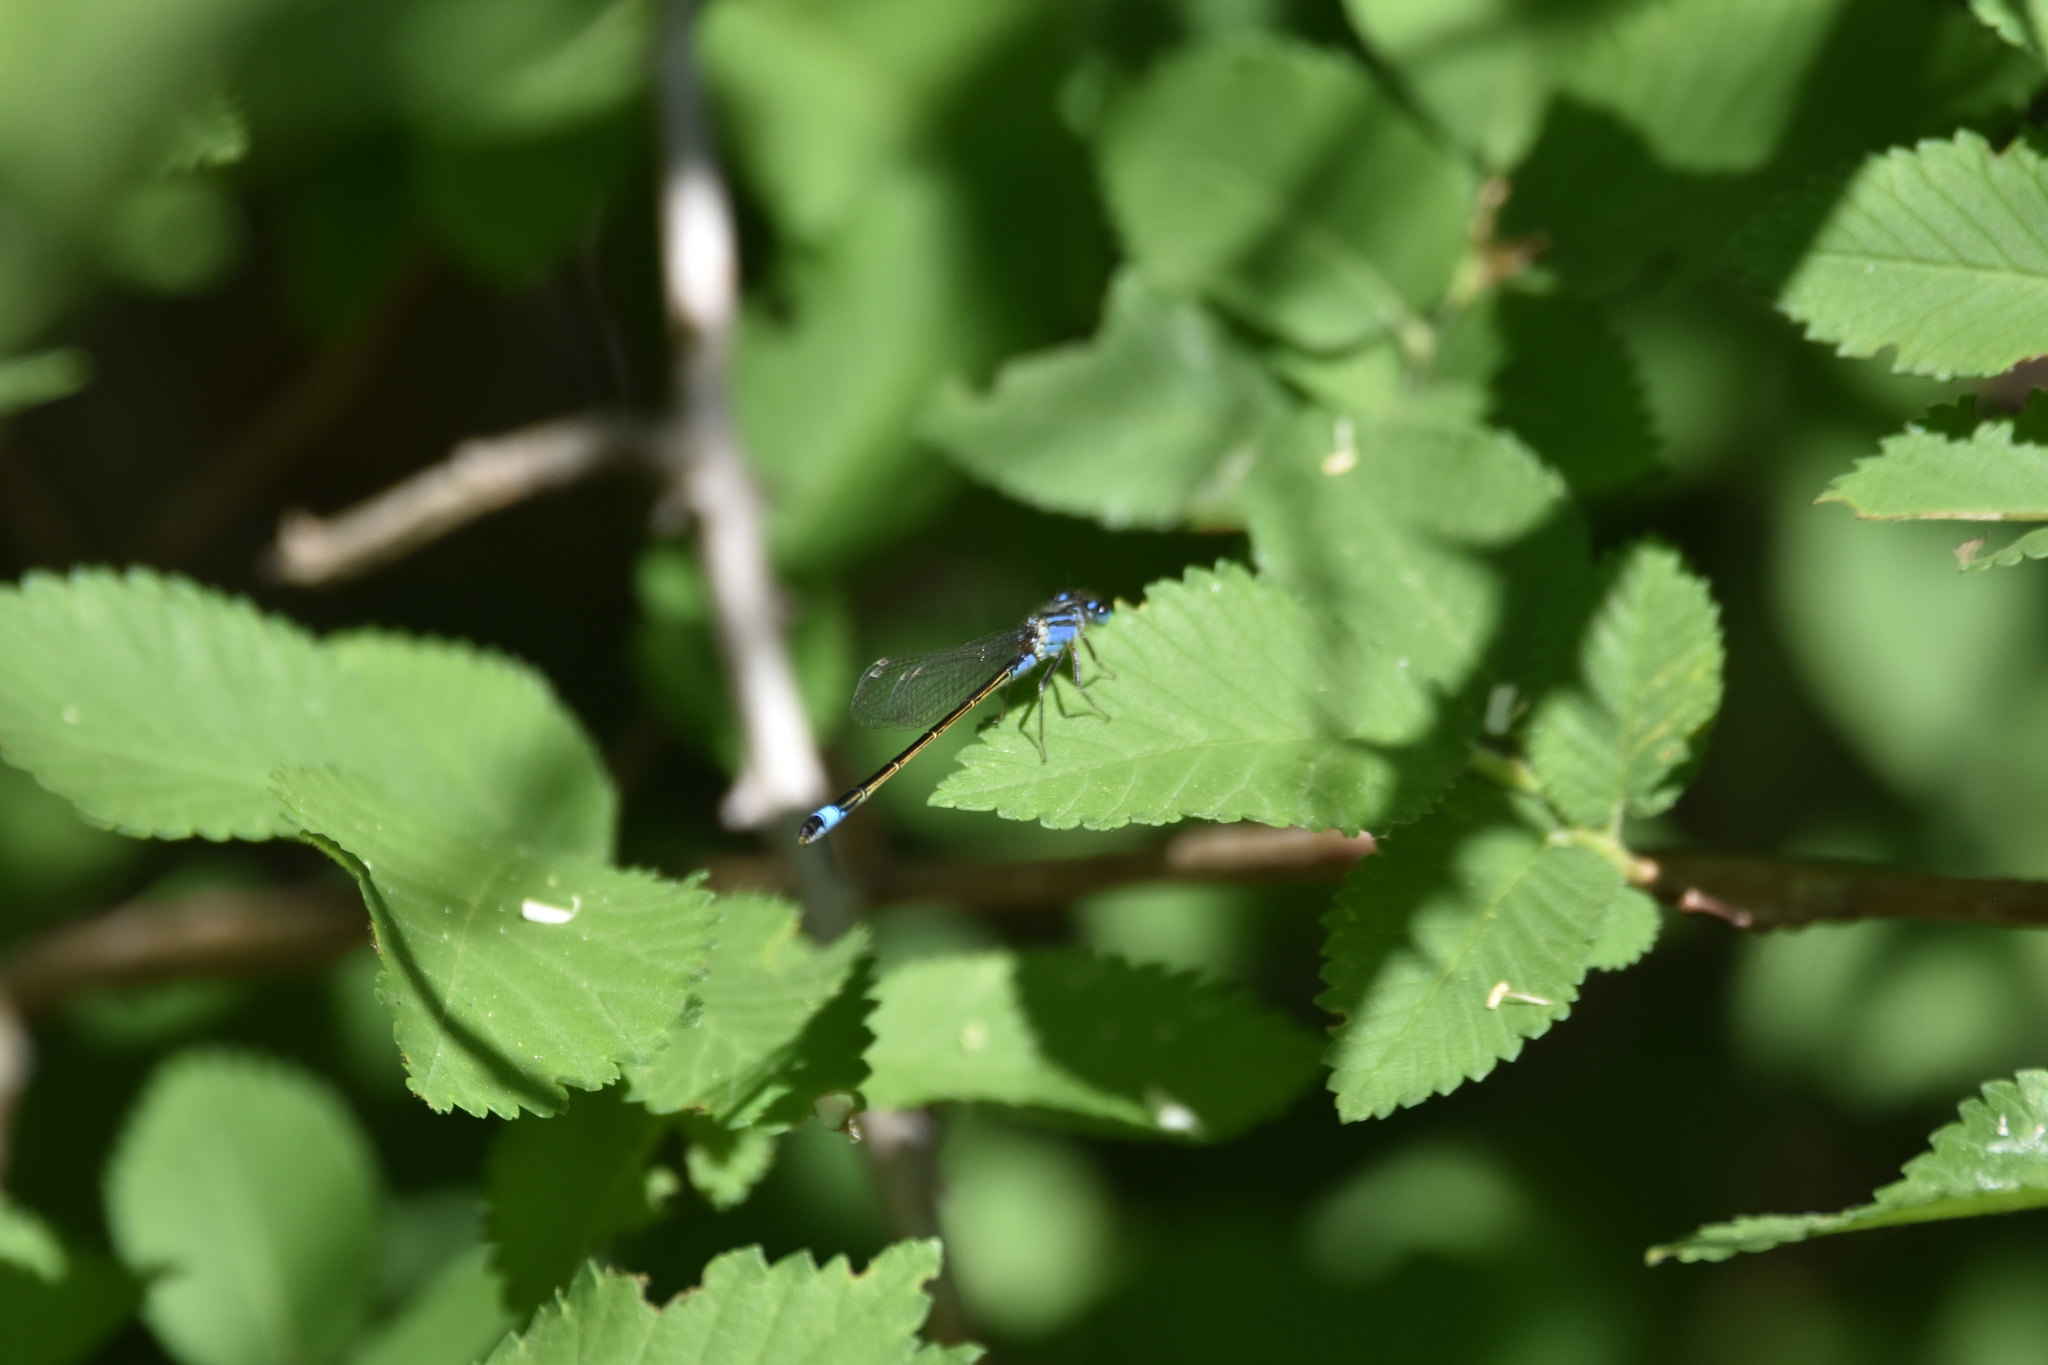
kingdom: Animalia
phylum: Arthropoda
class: Insecta
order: Odonata
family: Coenagrionidae
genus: Ischnura
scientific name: Ischnura elegans
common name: Blue-tailed damselfly
